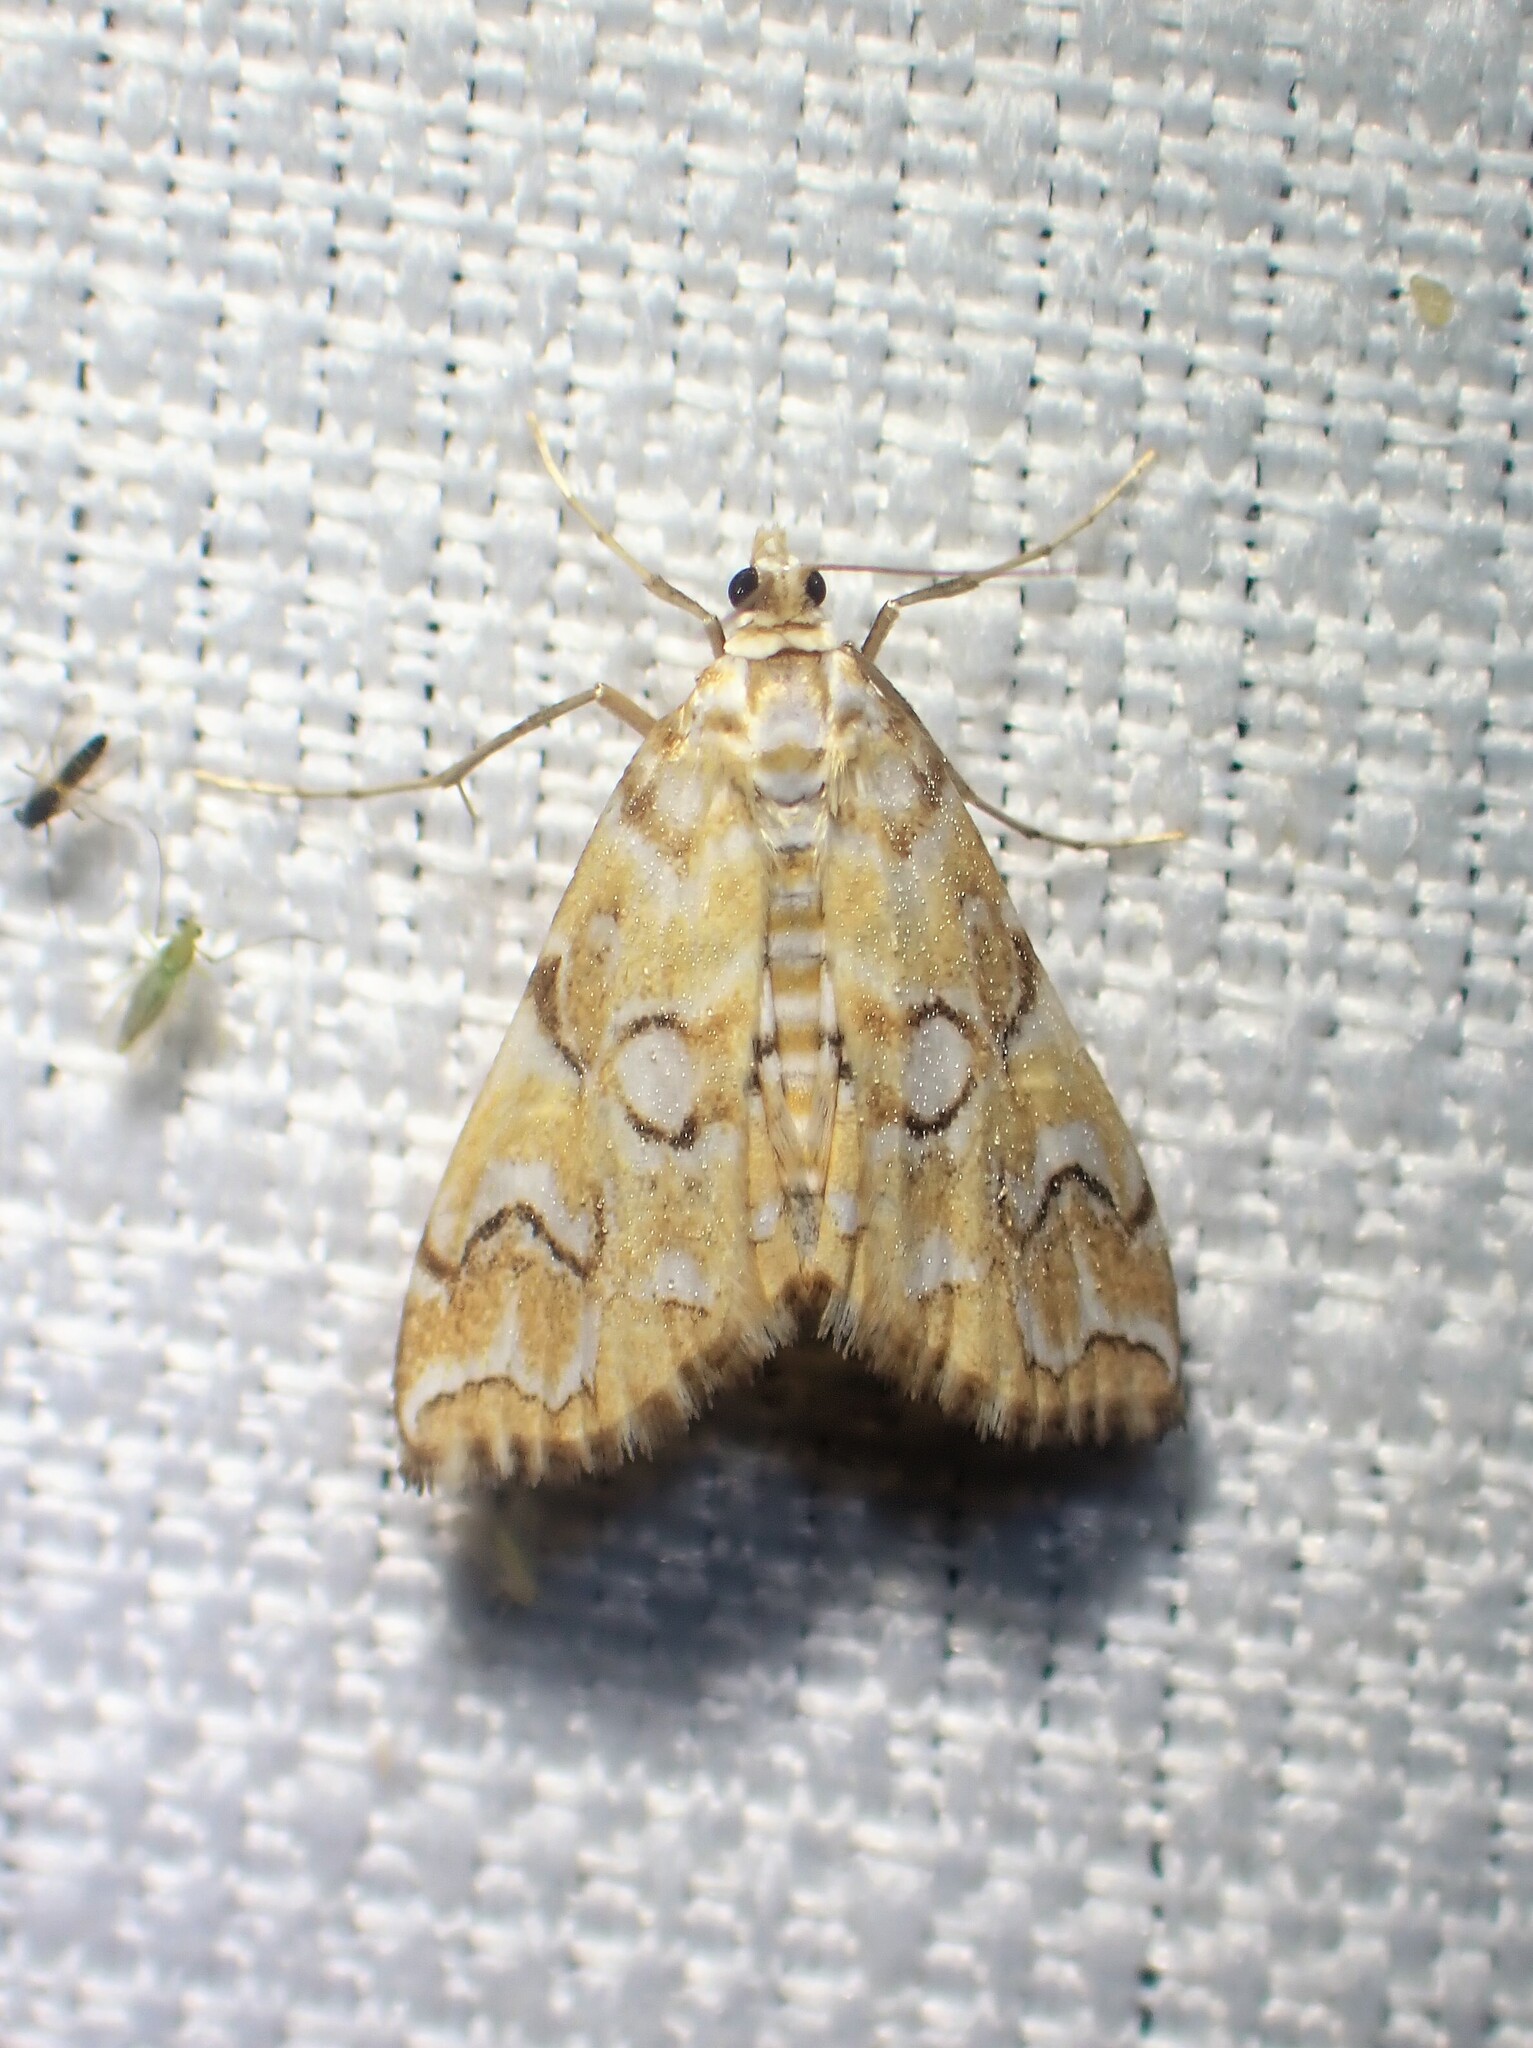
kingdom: Animalia
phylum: Arthropoda
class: Insecta
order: Lepidoptera
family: Crambidae
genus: Elophila
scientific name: Elophila icciusalis
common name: Pondside pyralid moth
